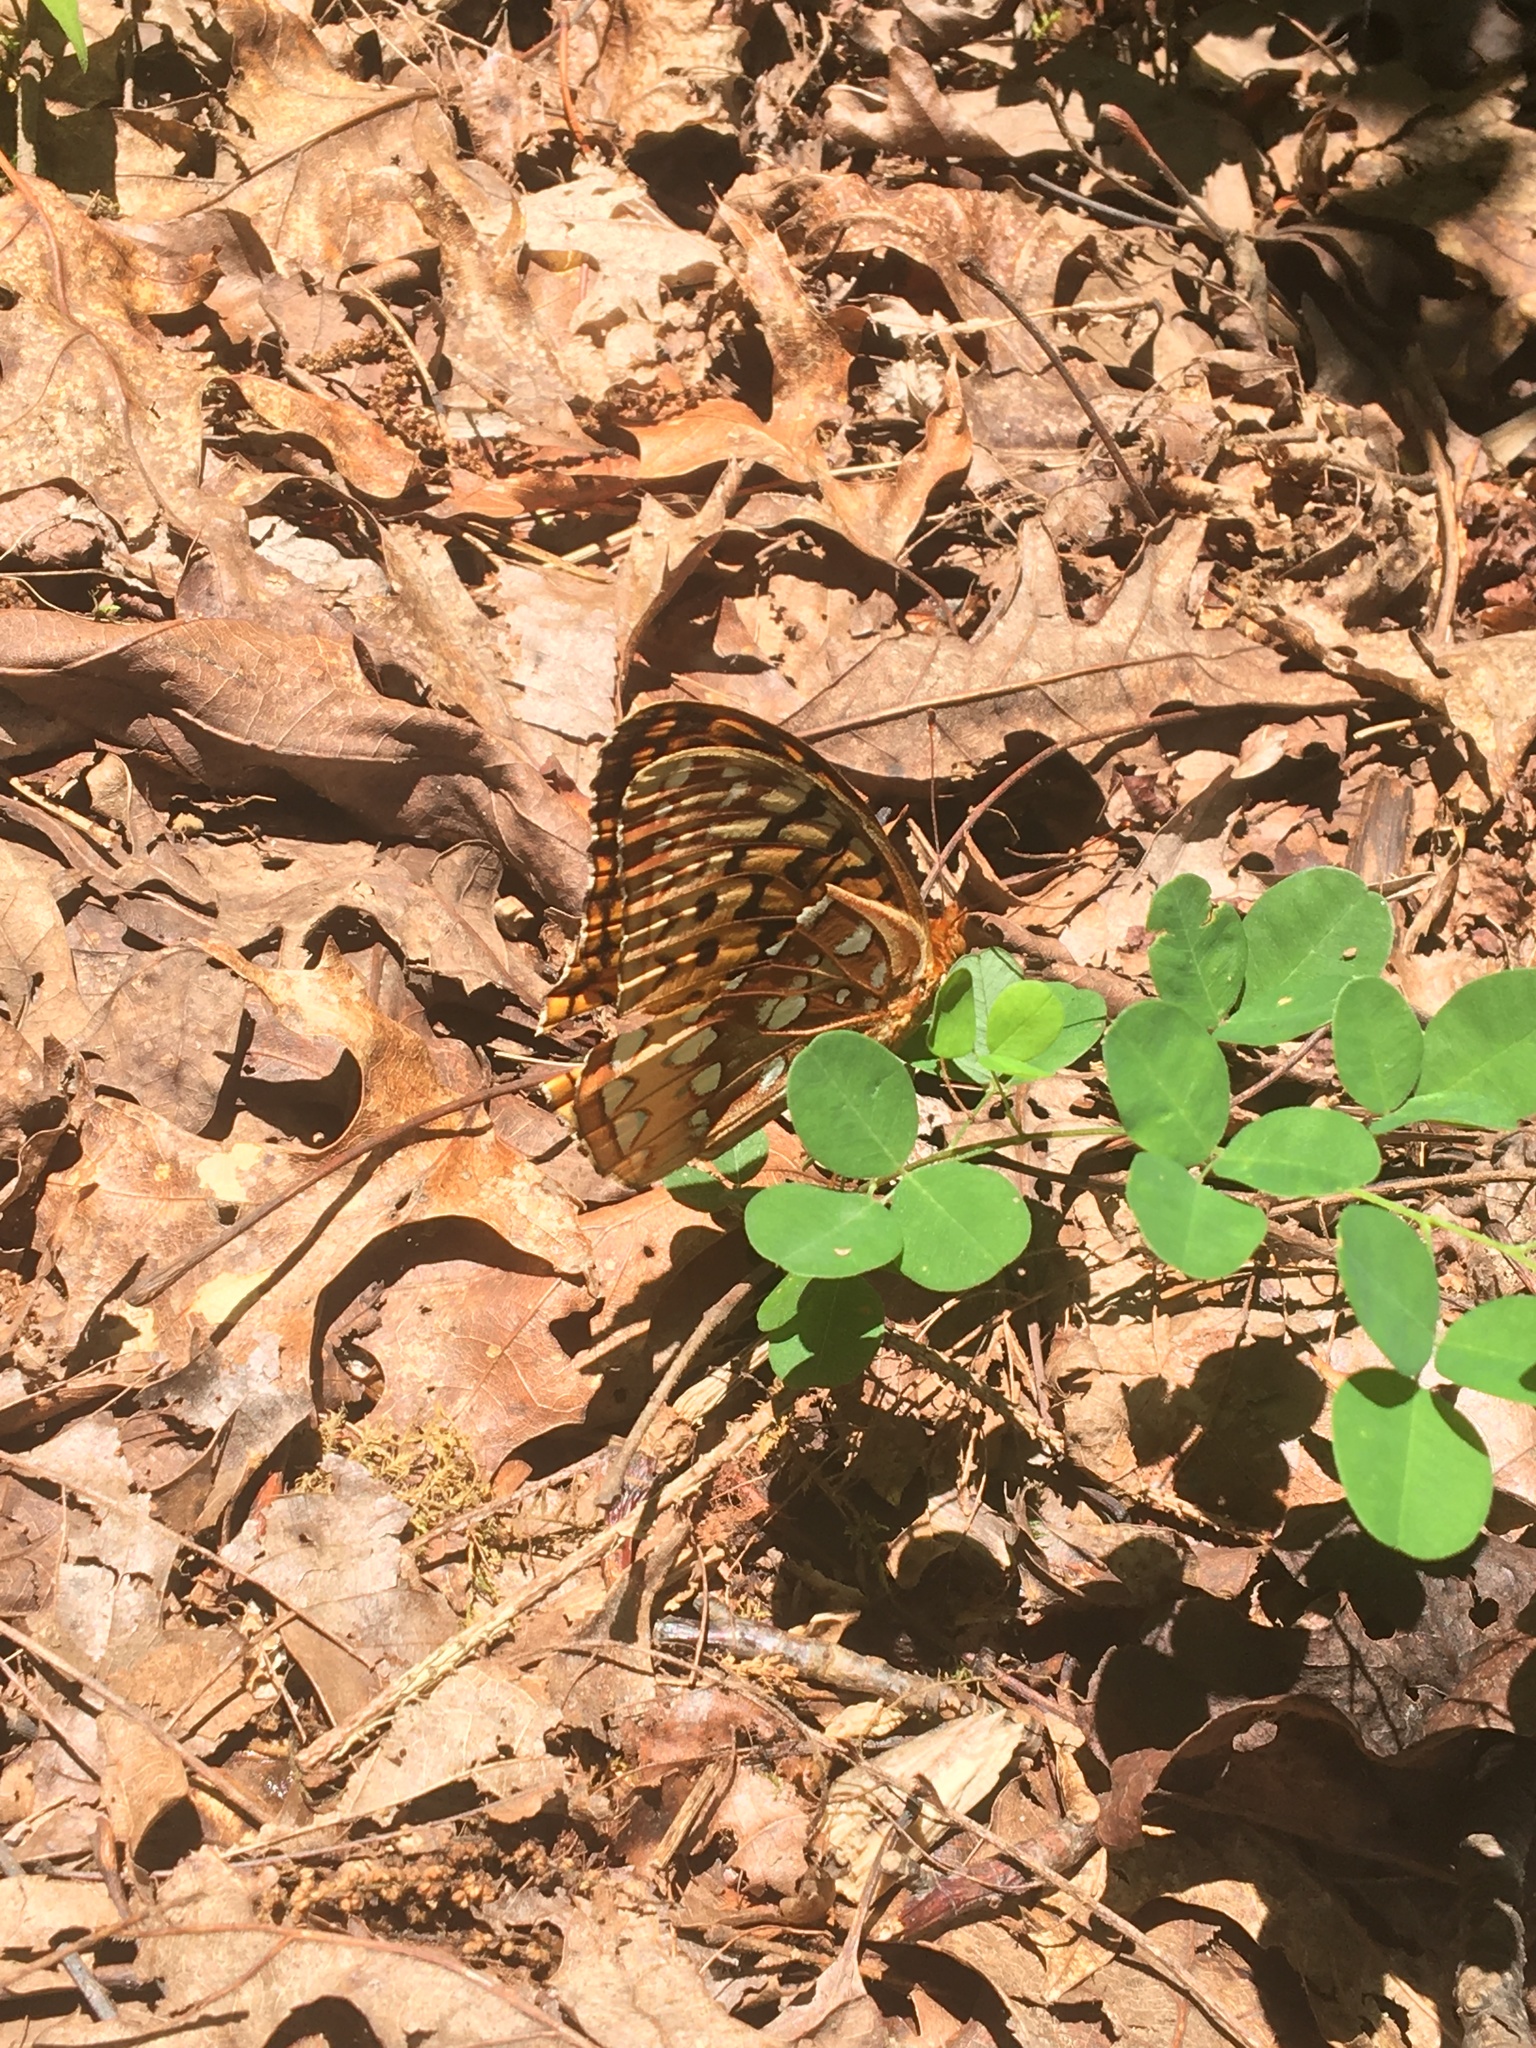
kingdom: Animalia
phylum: Arthropoda
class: Insecta
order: Lepidoptera
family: Nymphalidae
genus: Speyeria
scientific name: Speyeria cybele
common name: Great spangled fritillary
